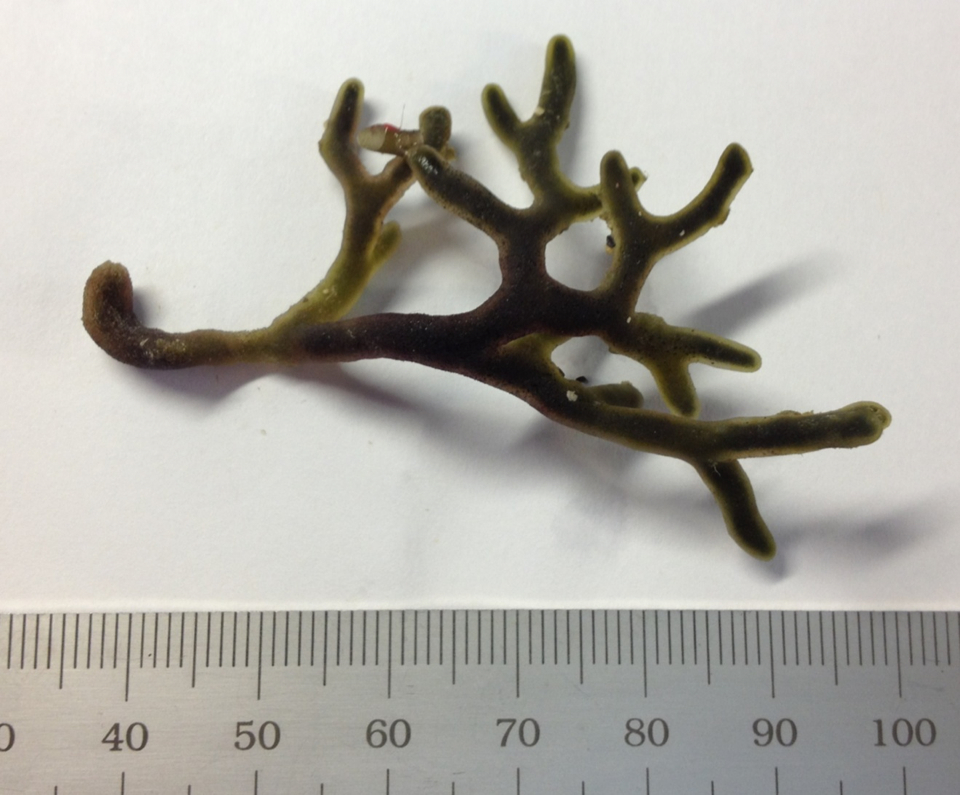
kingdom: Plantae
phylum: Chlorophyta
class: Ulvophyceae
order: Bryopsidales
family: Codiaceae
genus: Codium
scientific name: Codium reediae
